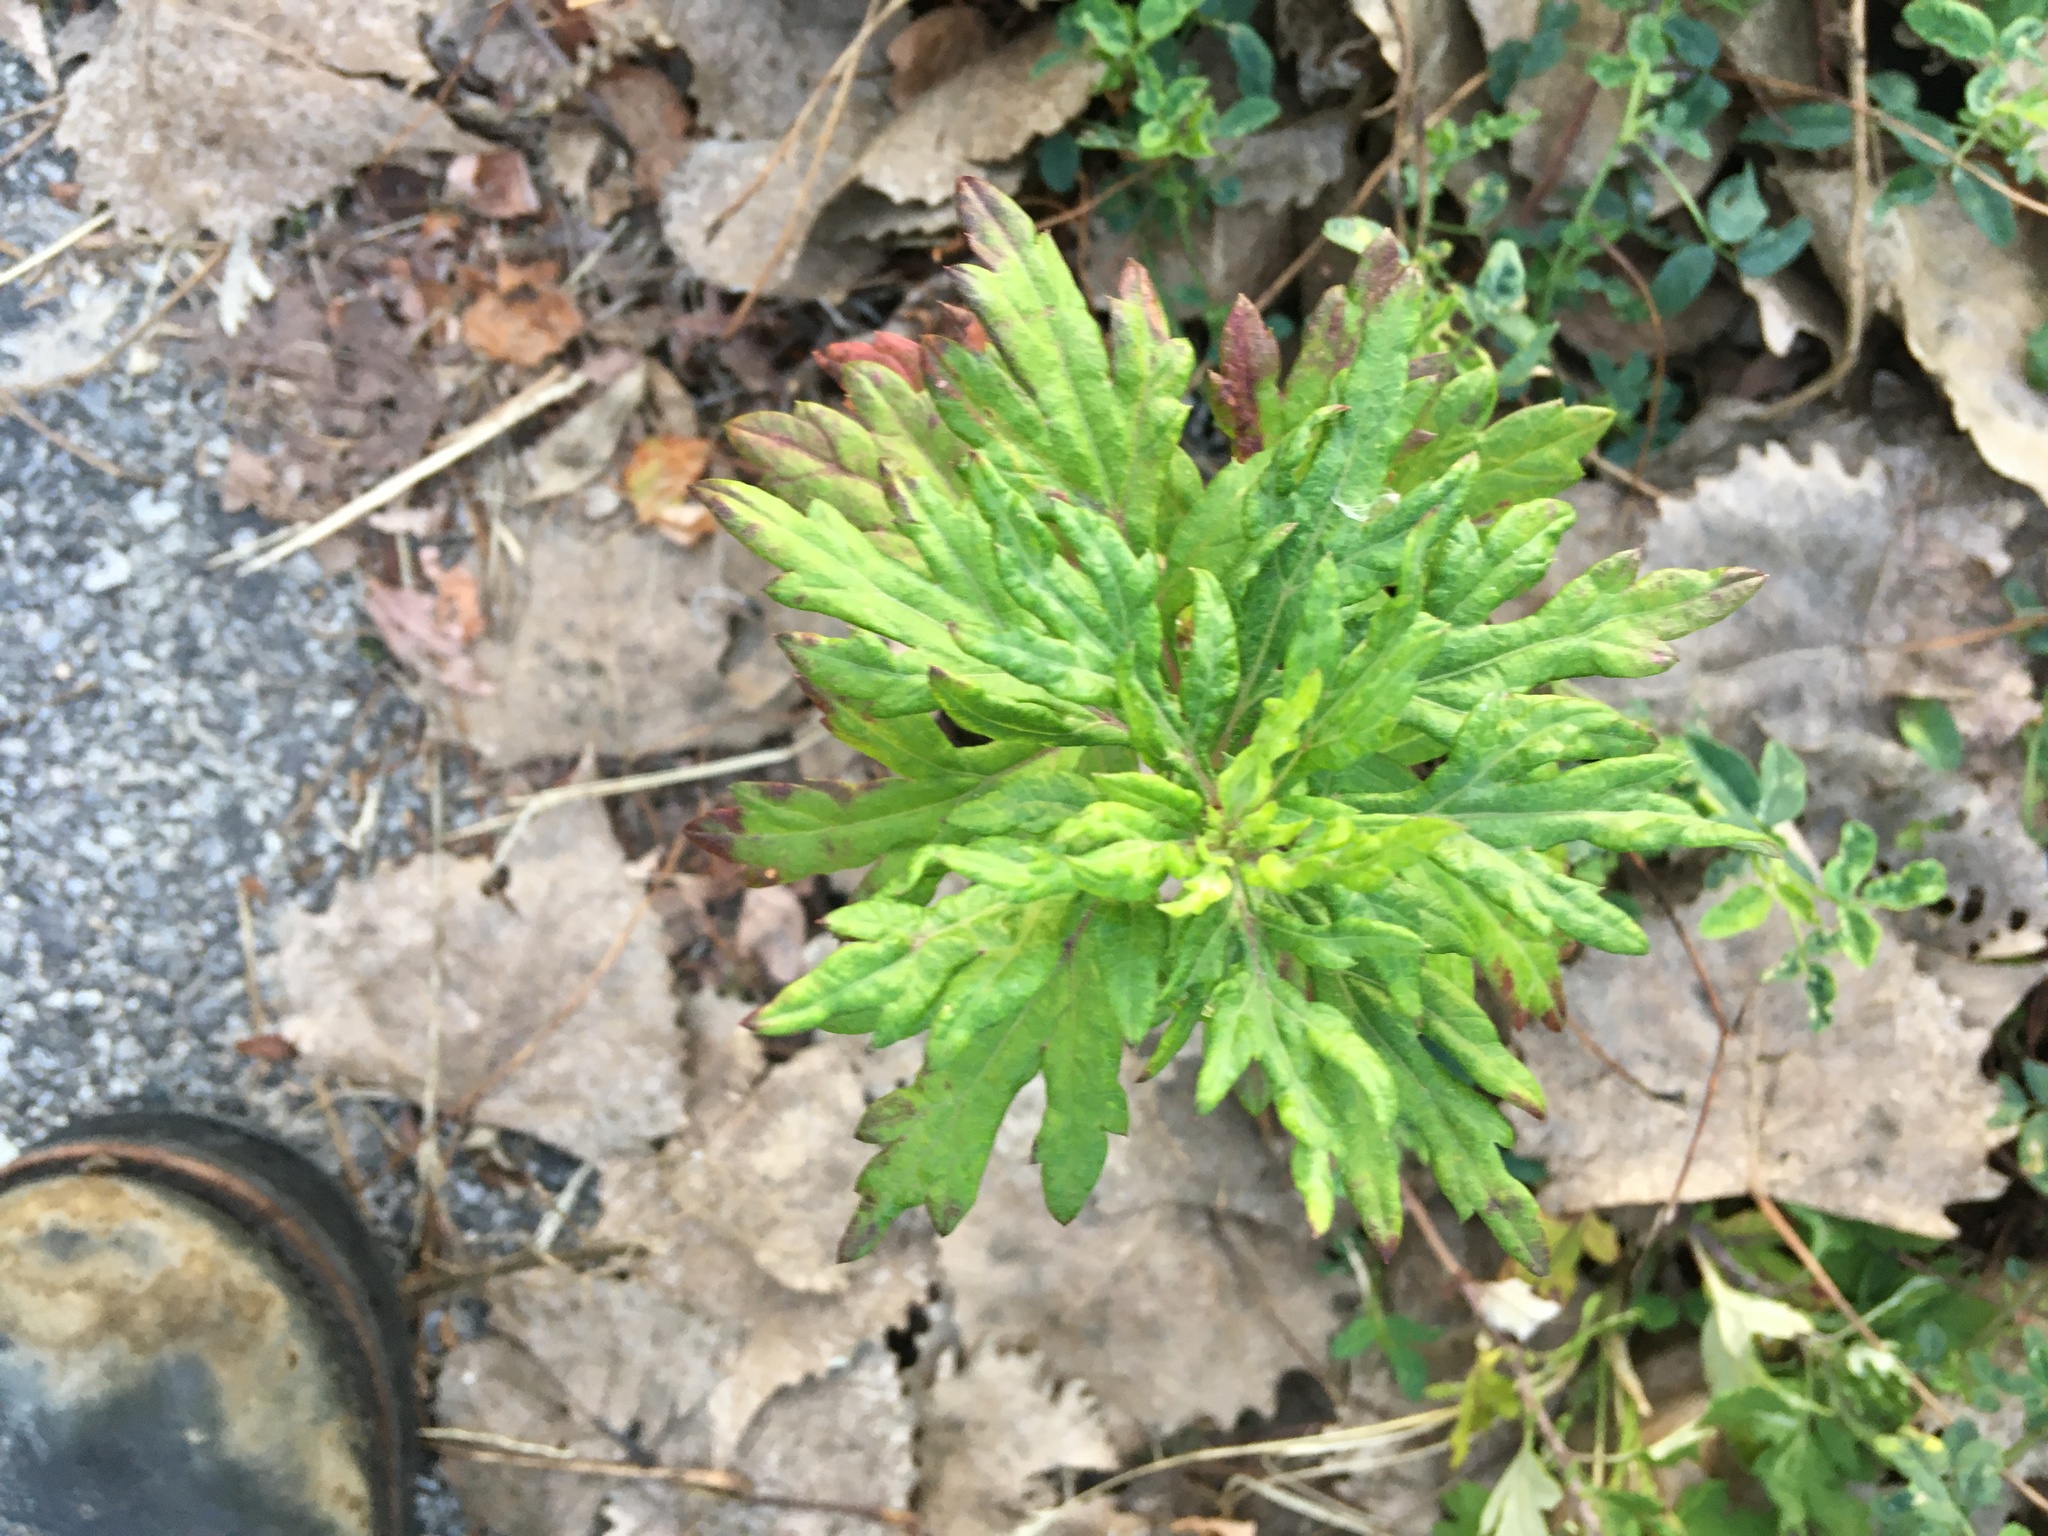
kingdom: Plantae
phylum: Tracheophyta
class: Magnoliopsida
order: Asterales
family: Asteraceae
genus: Artemisia
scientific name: Artemisia vulgaris
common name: Mugwort
